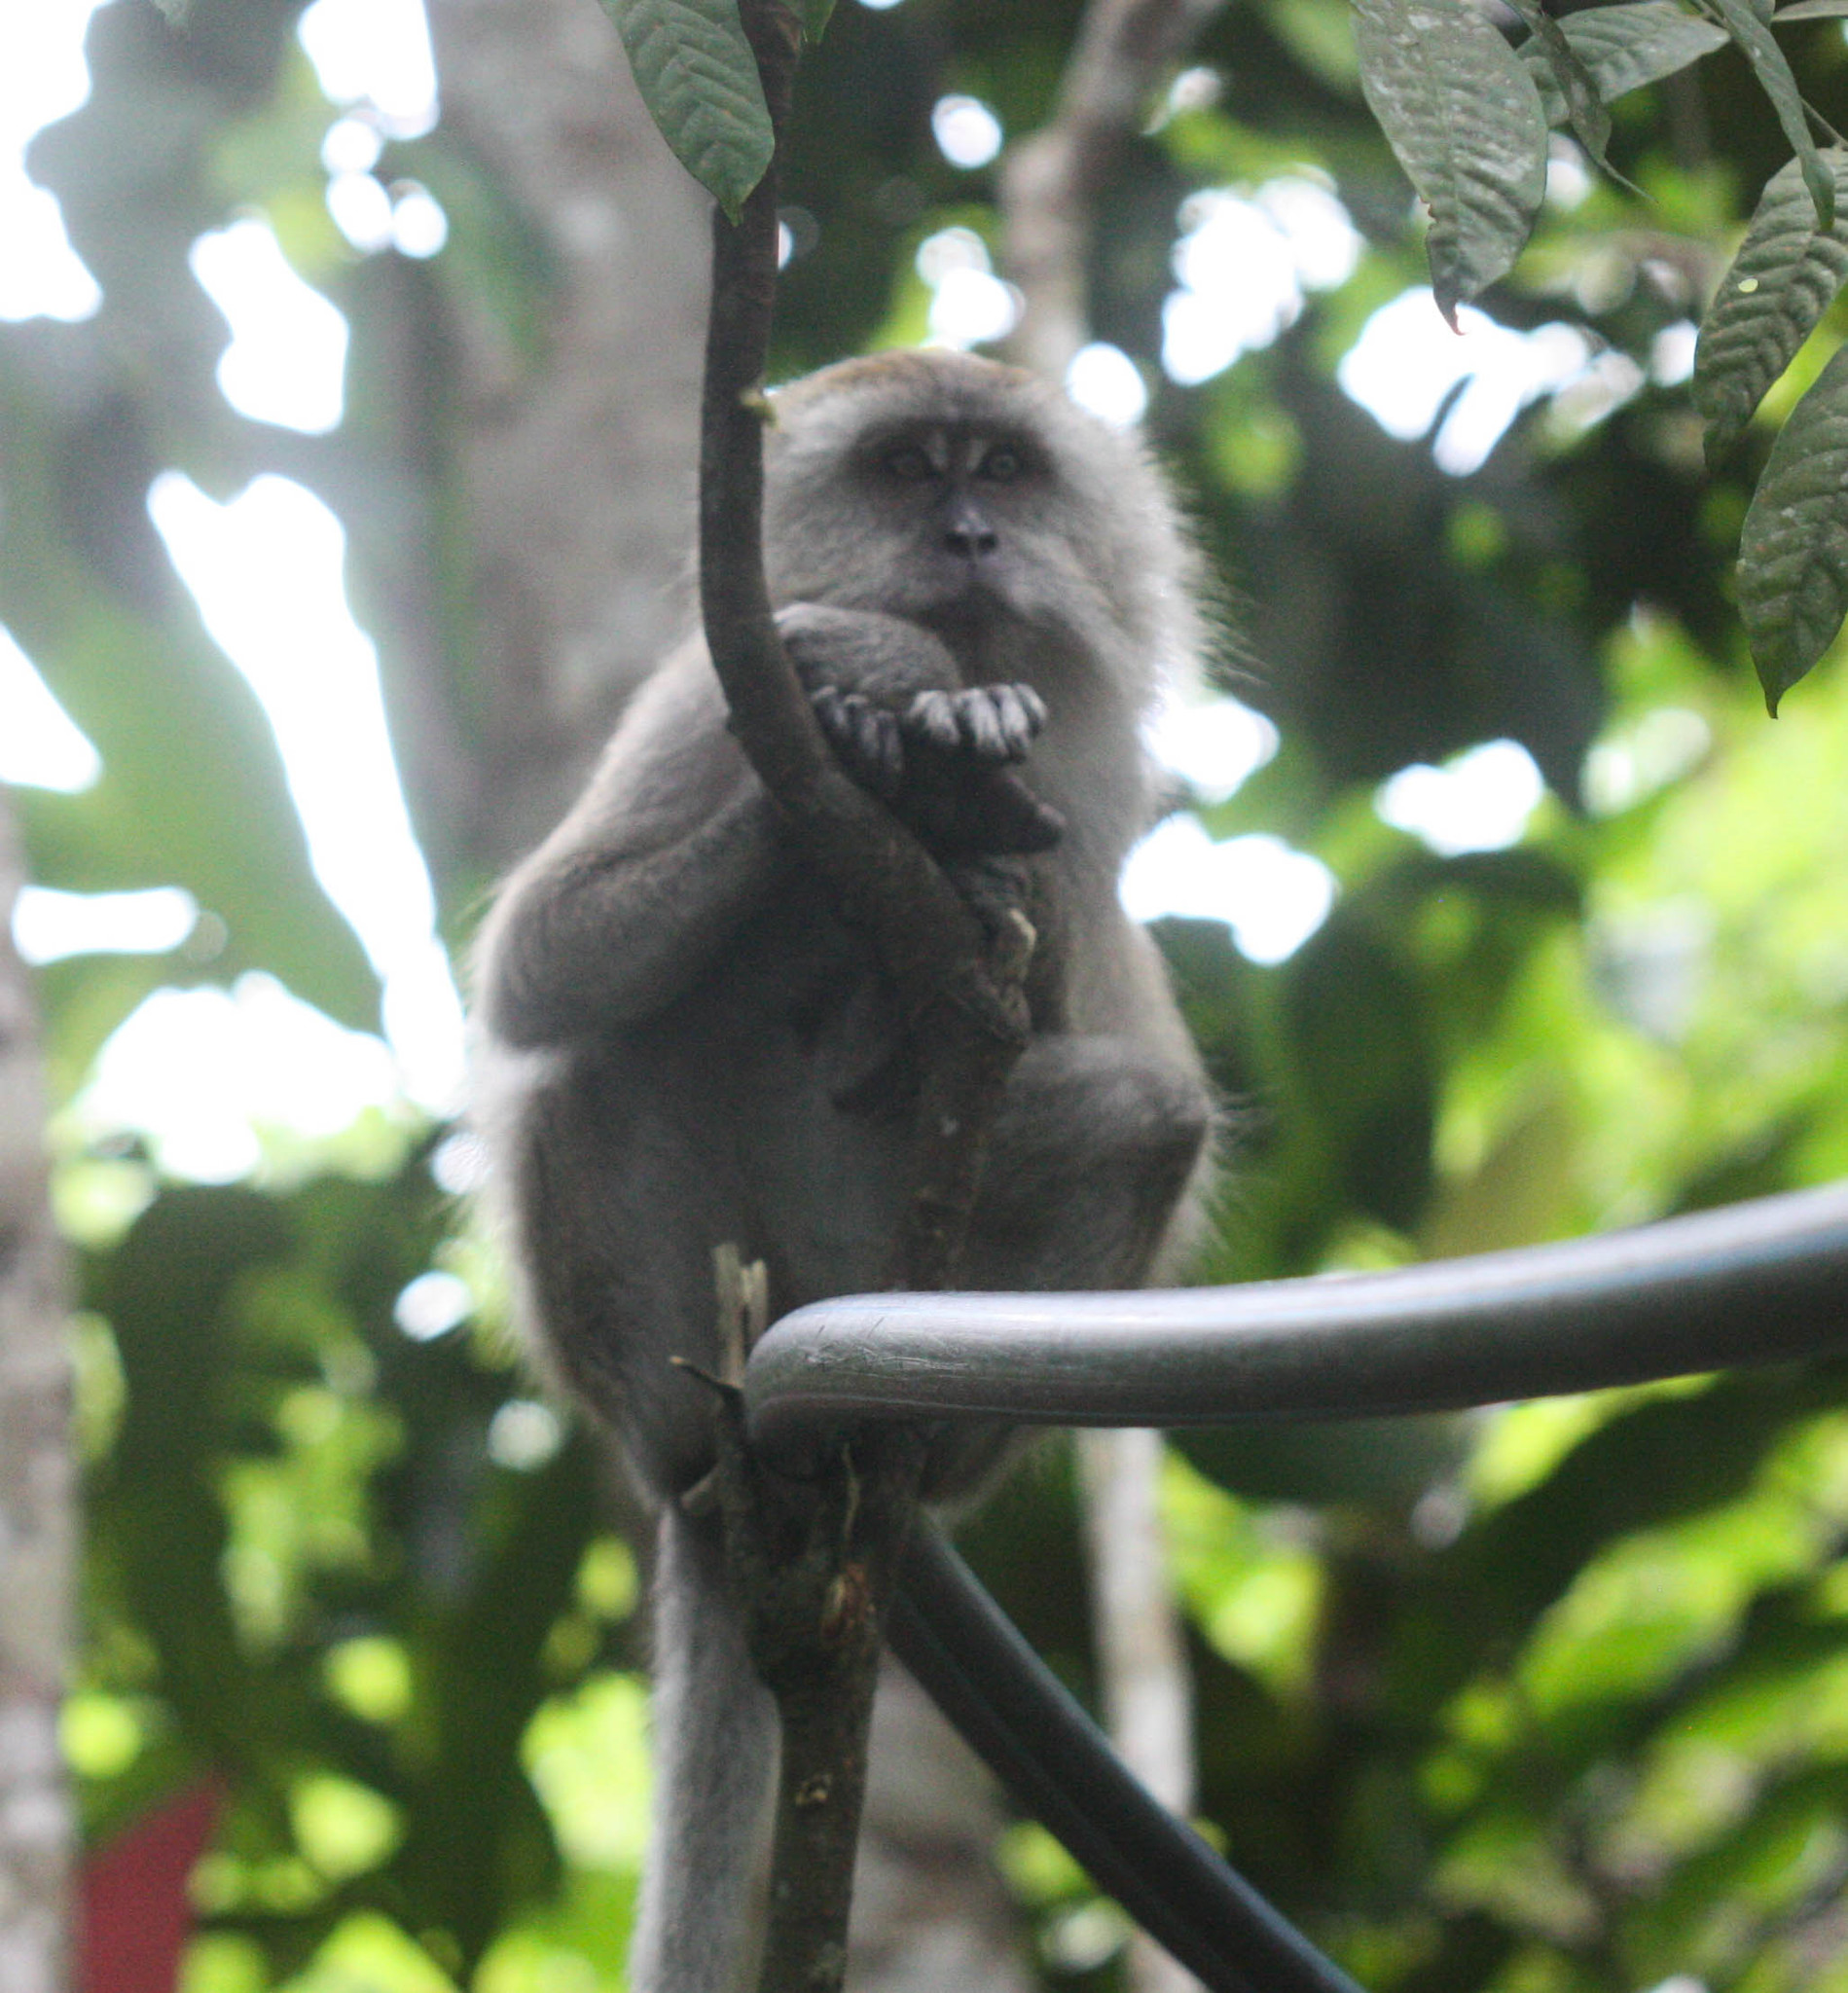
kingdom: Animalia
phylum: Chordata
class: Mammalia
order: Primates
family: Cercopithecidae
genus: Macaca
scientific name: Macaca fascicularis
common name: Crab-eating macaque
